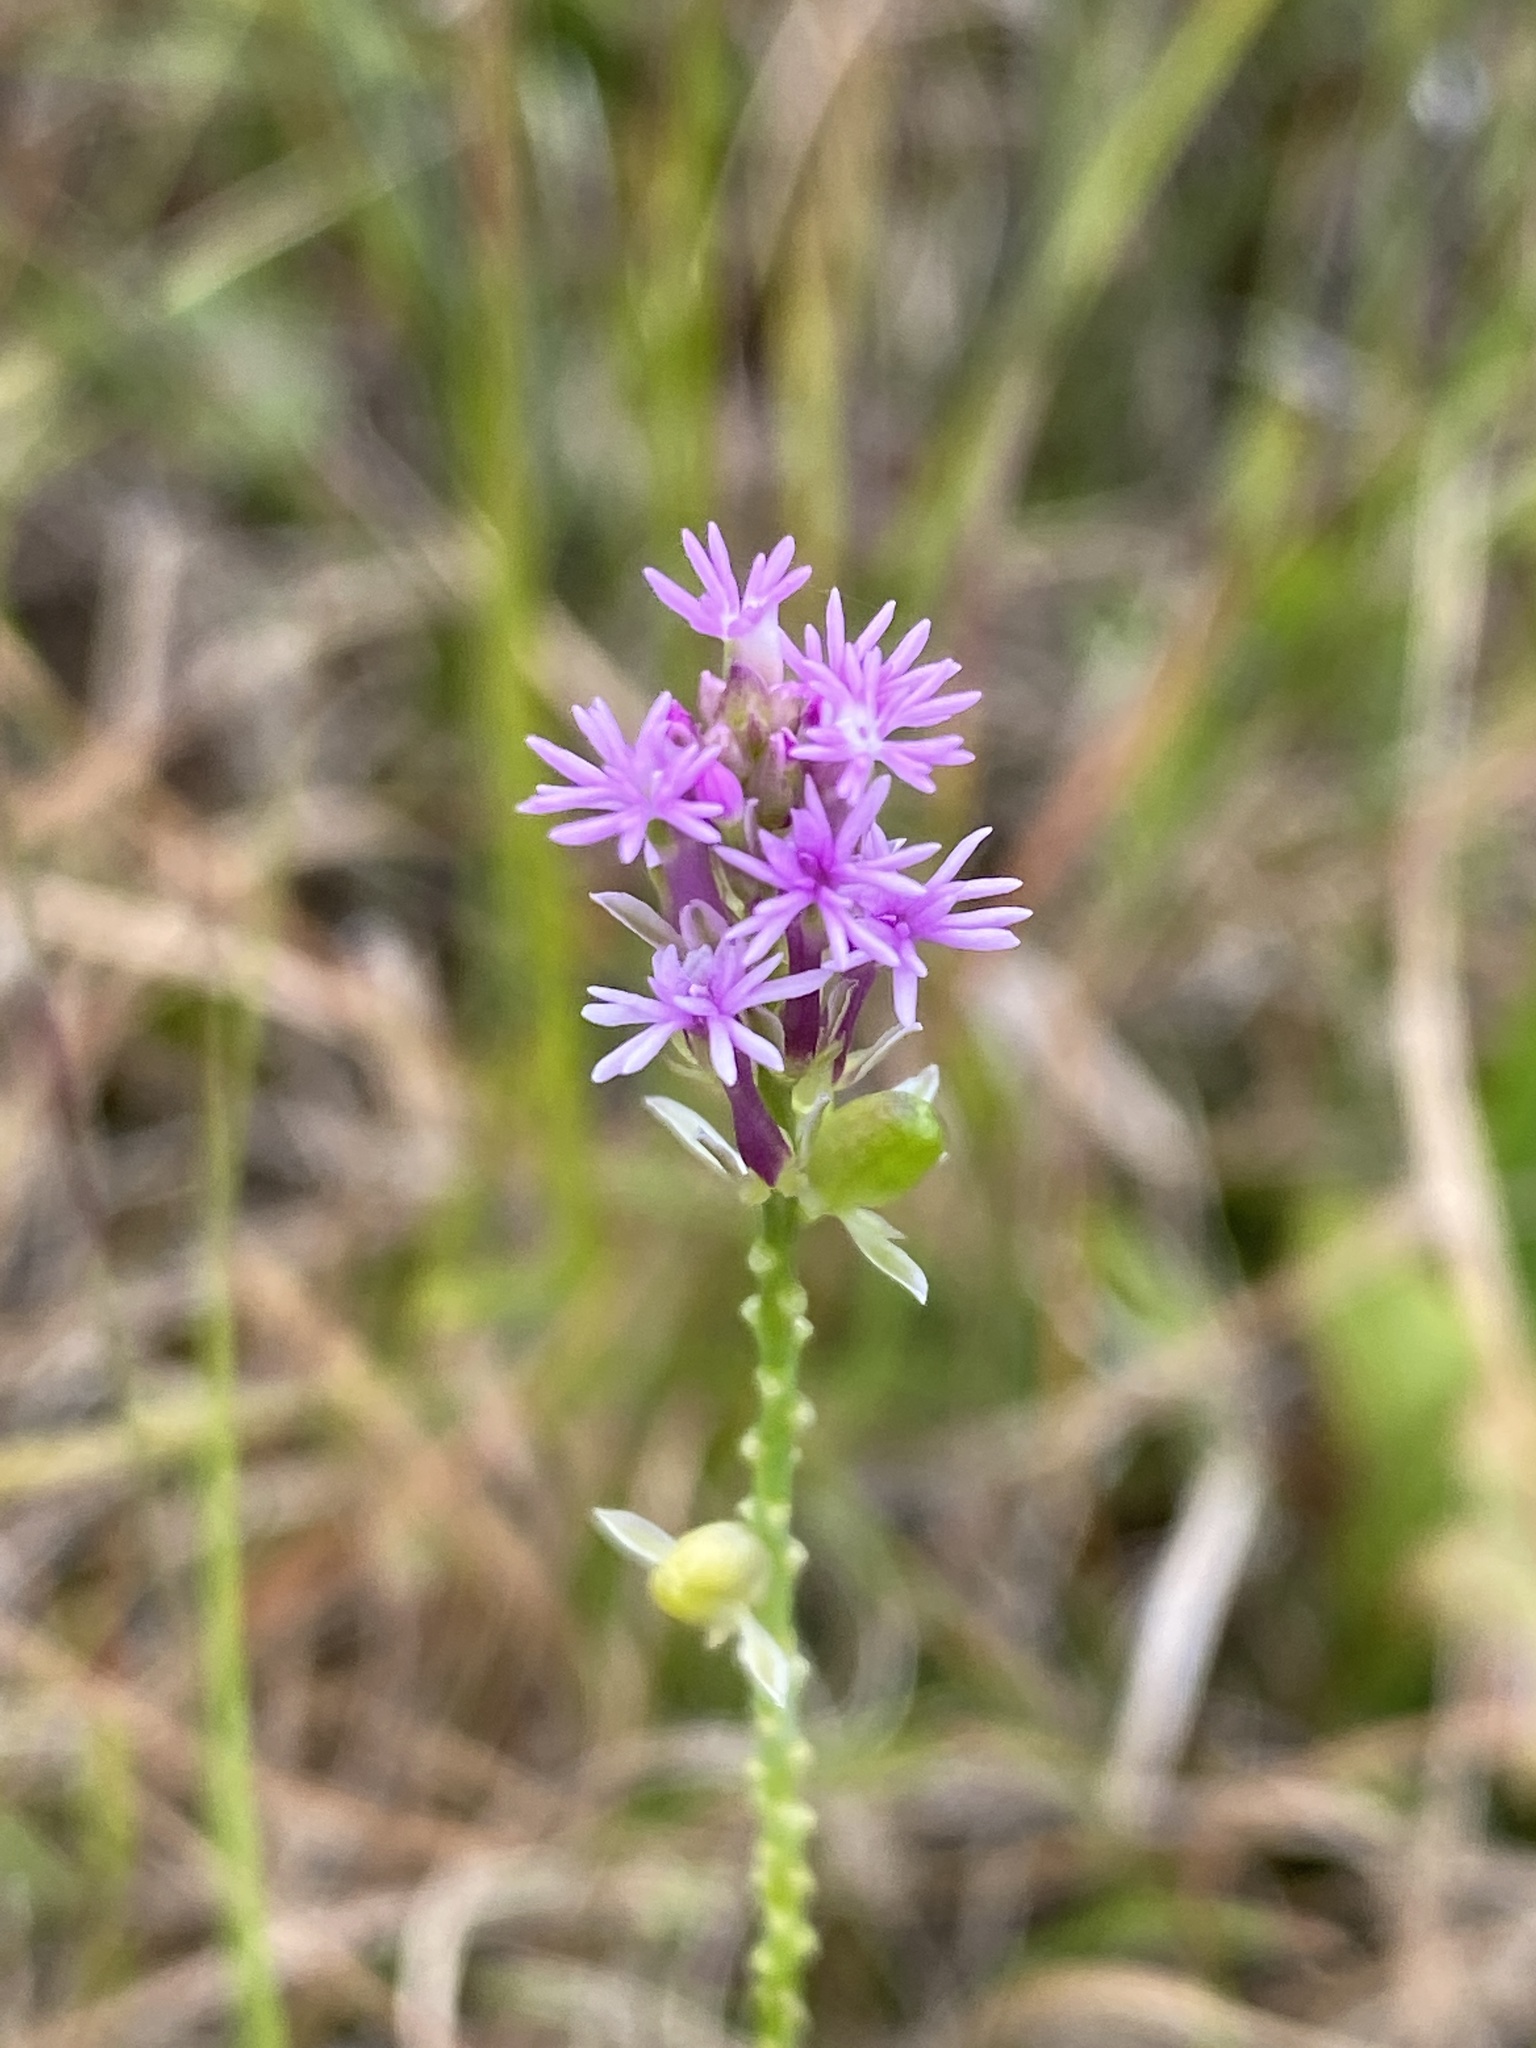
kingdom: Plantae
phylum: Tracheophyta
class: Magnoliopsida
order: Fabales
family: Polygalaceae
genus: Polygala
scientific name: Polygala incarnata
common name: Pink milkwort
